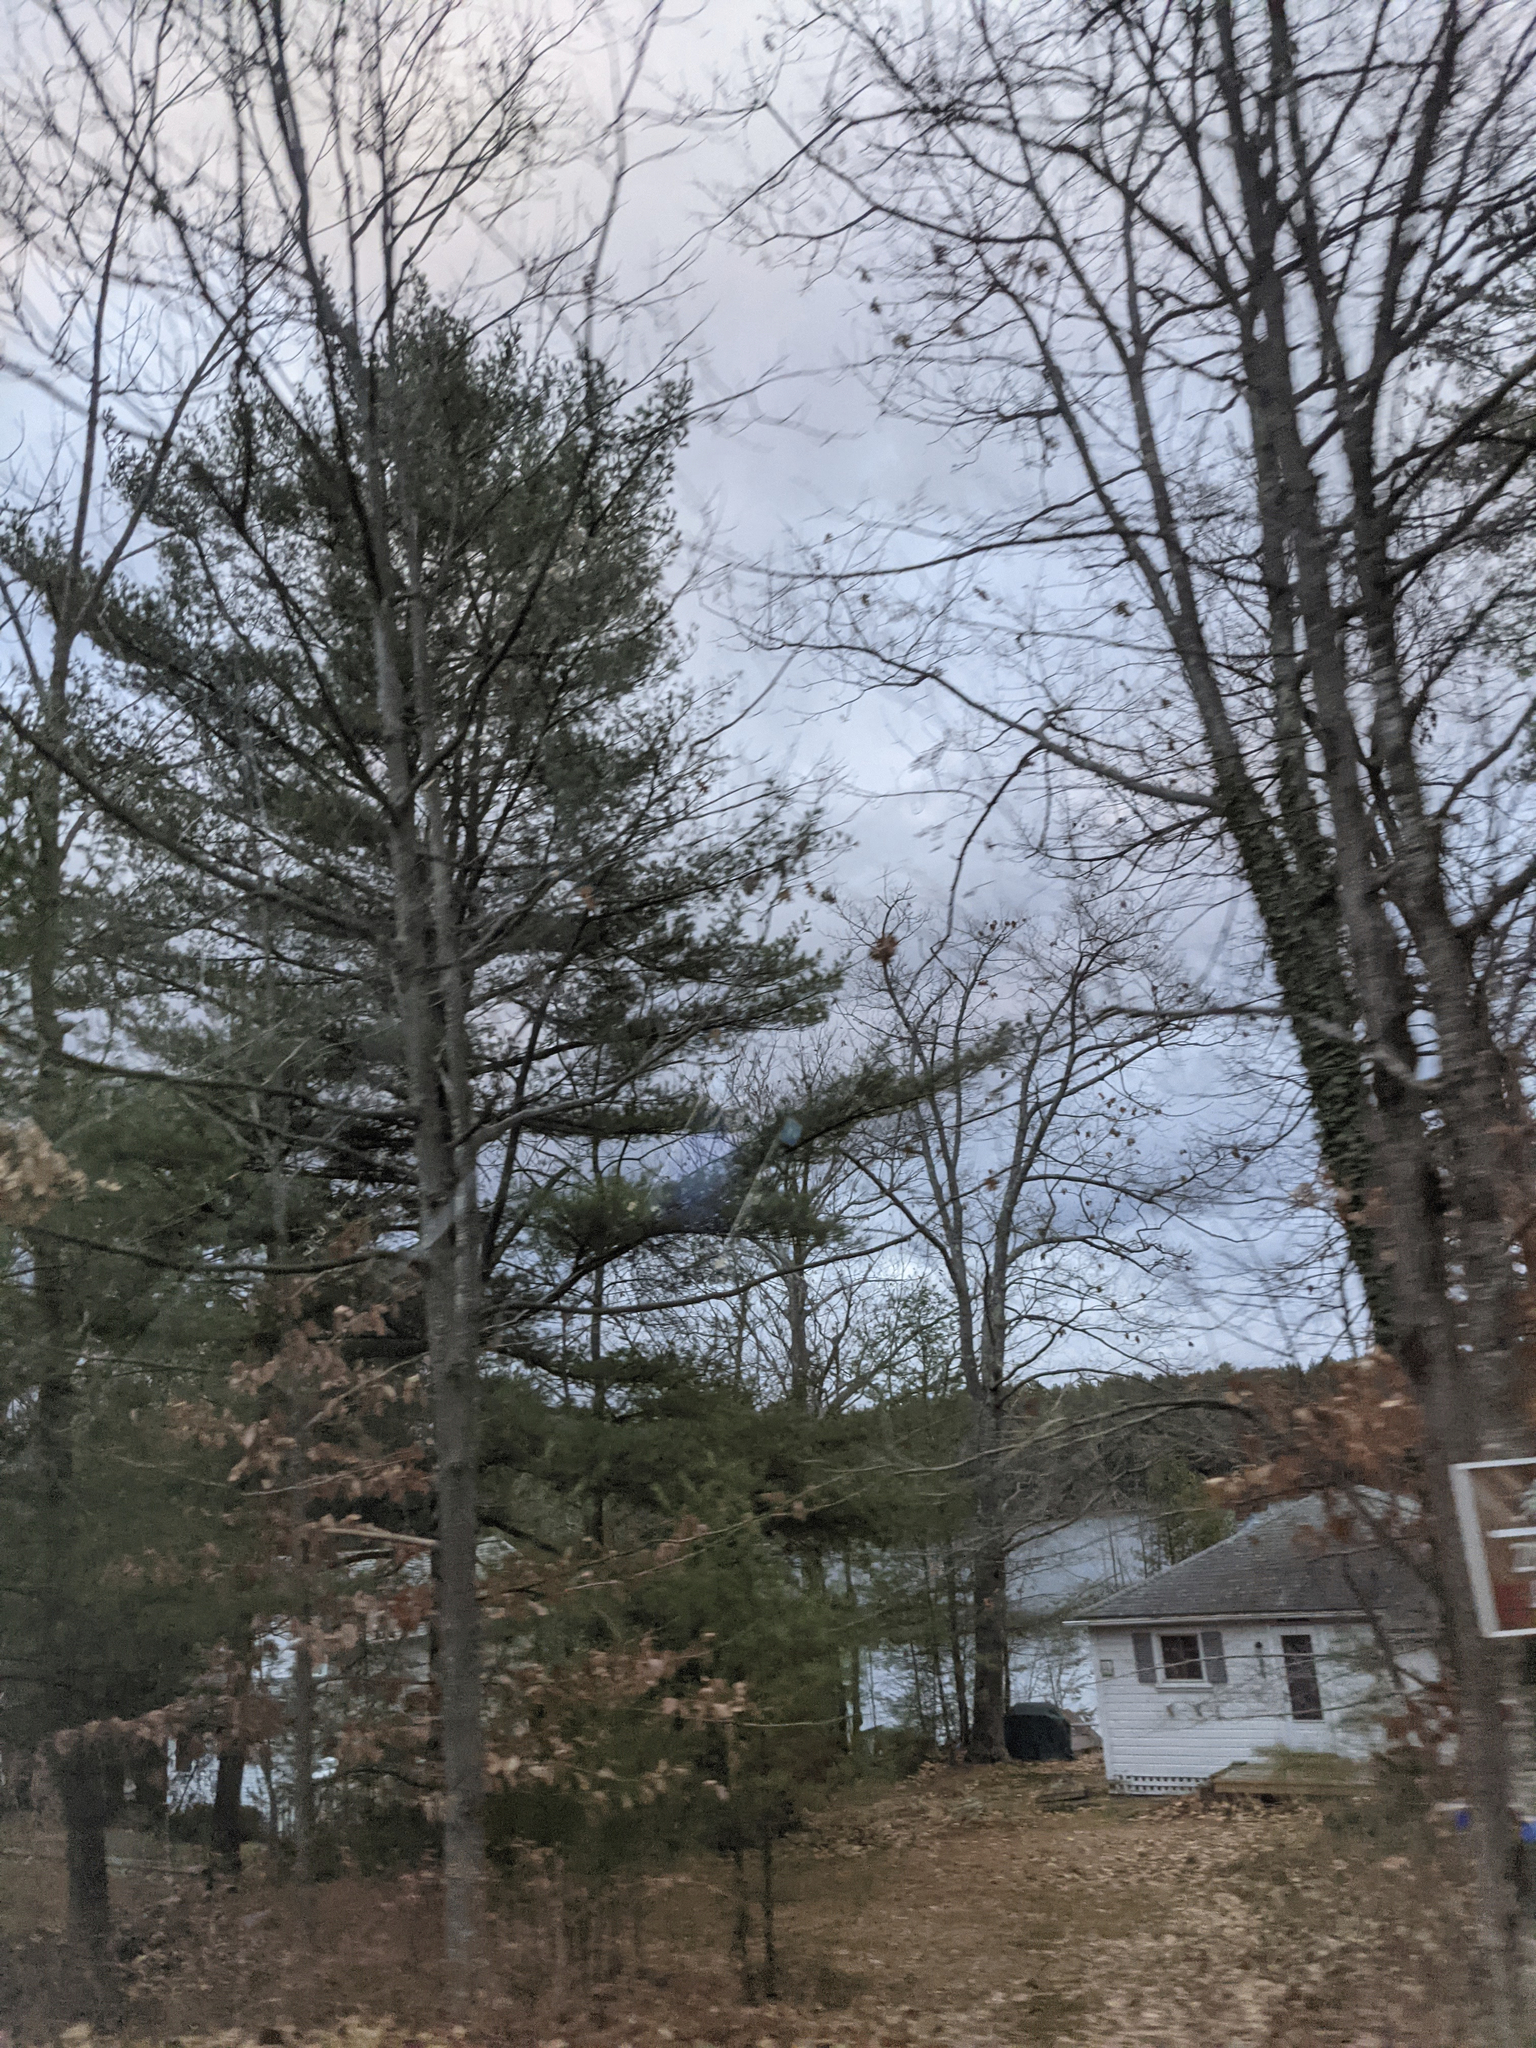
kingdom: Plantae
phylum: Tracheophyta
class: Pinopsida
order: Pinales
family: Pinaceae
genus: Pinus
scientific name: Pinus strobus
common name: Weymouth pine
